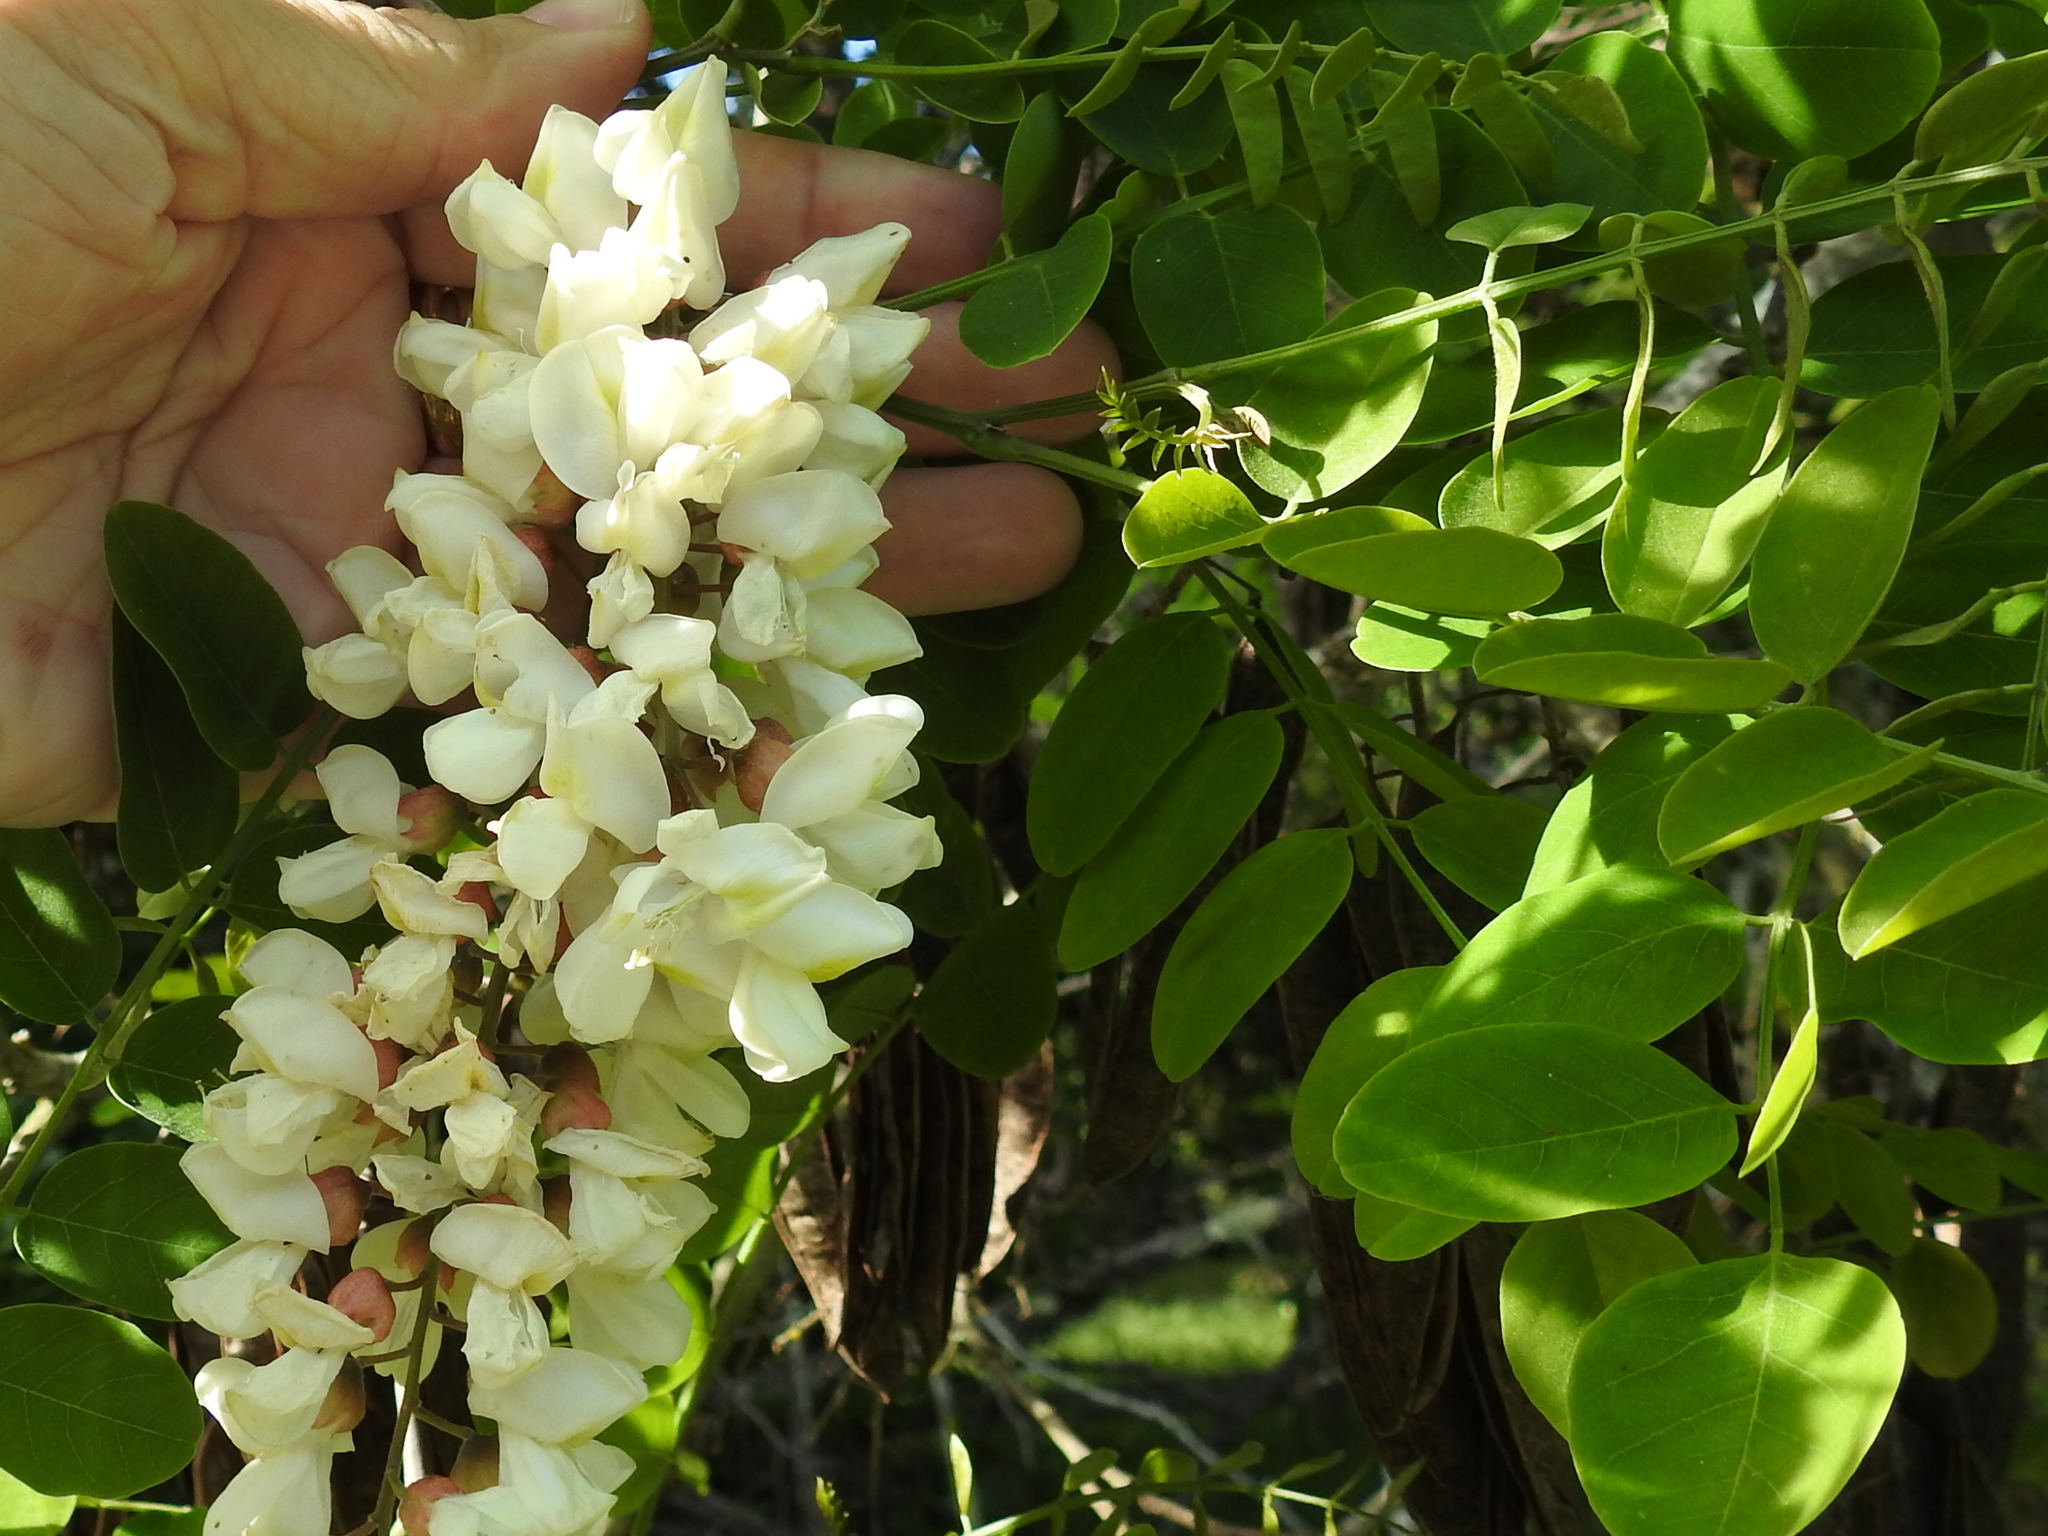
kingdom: Plantae
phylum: Tracheophyta
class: Magnoliopsida
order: Fabales
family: Fabaceae
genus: Robinia
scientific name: Robinia pseudoacacia
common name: Black locust
